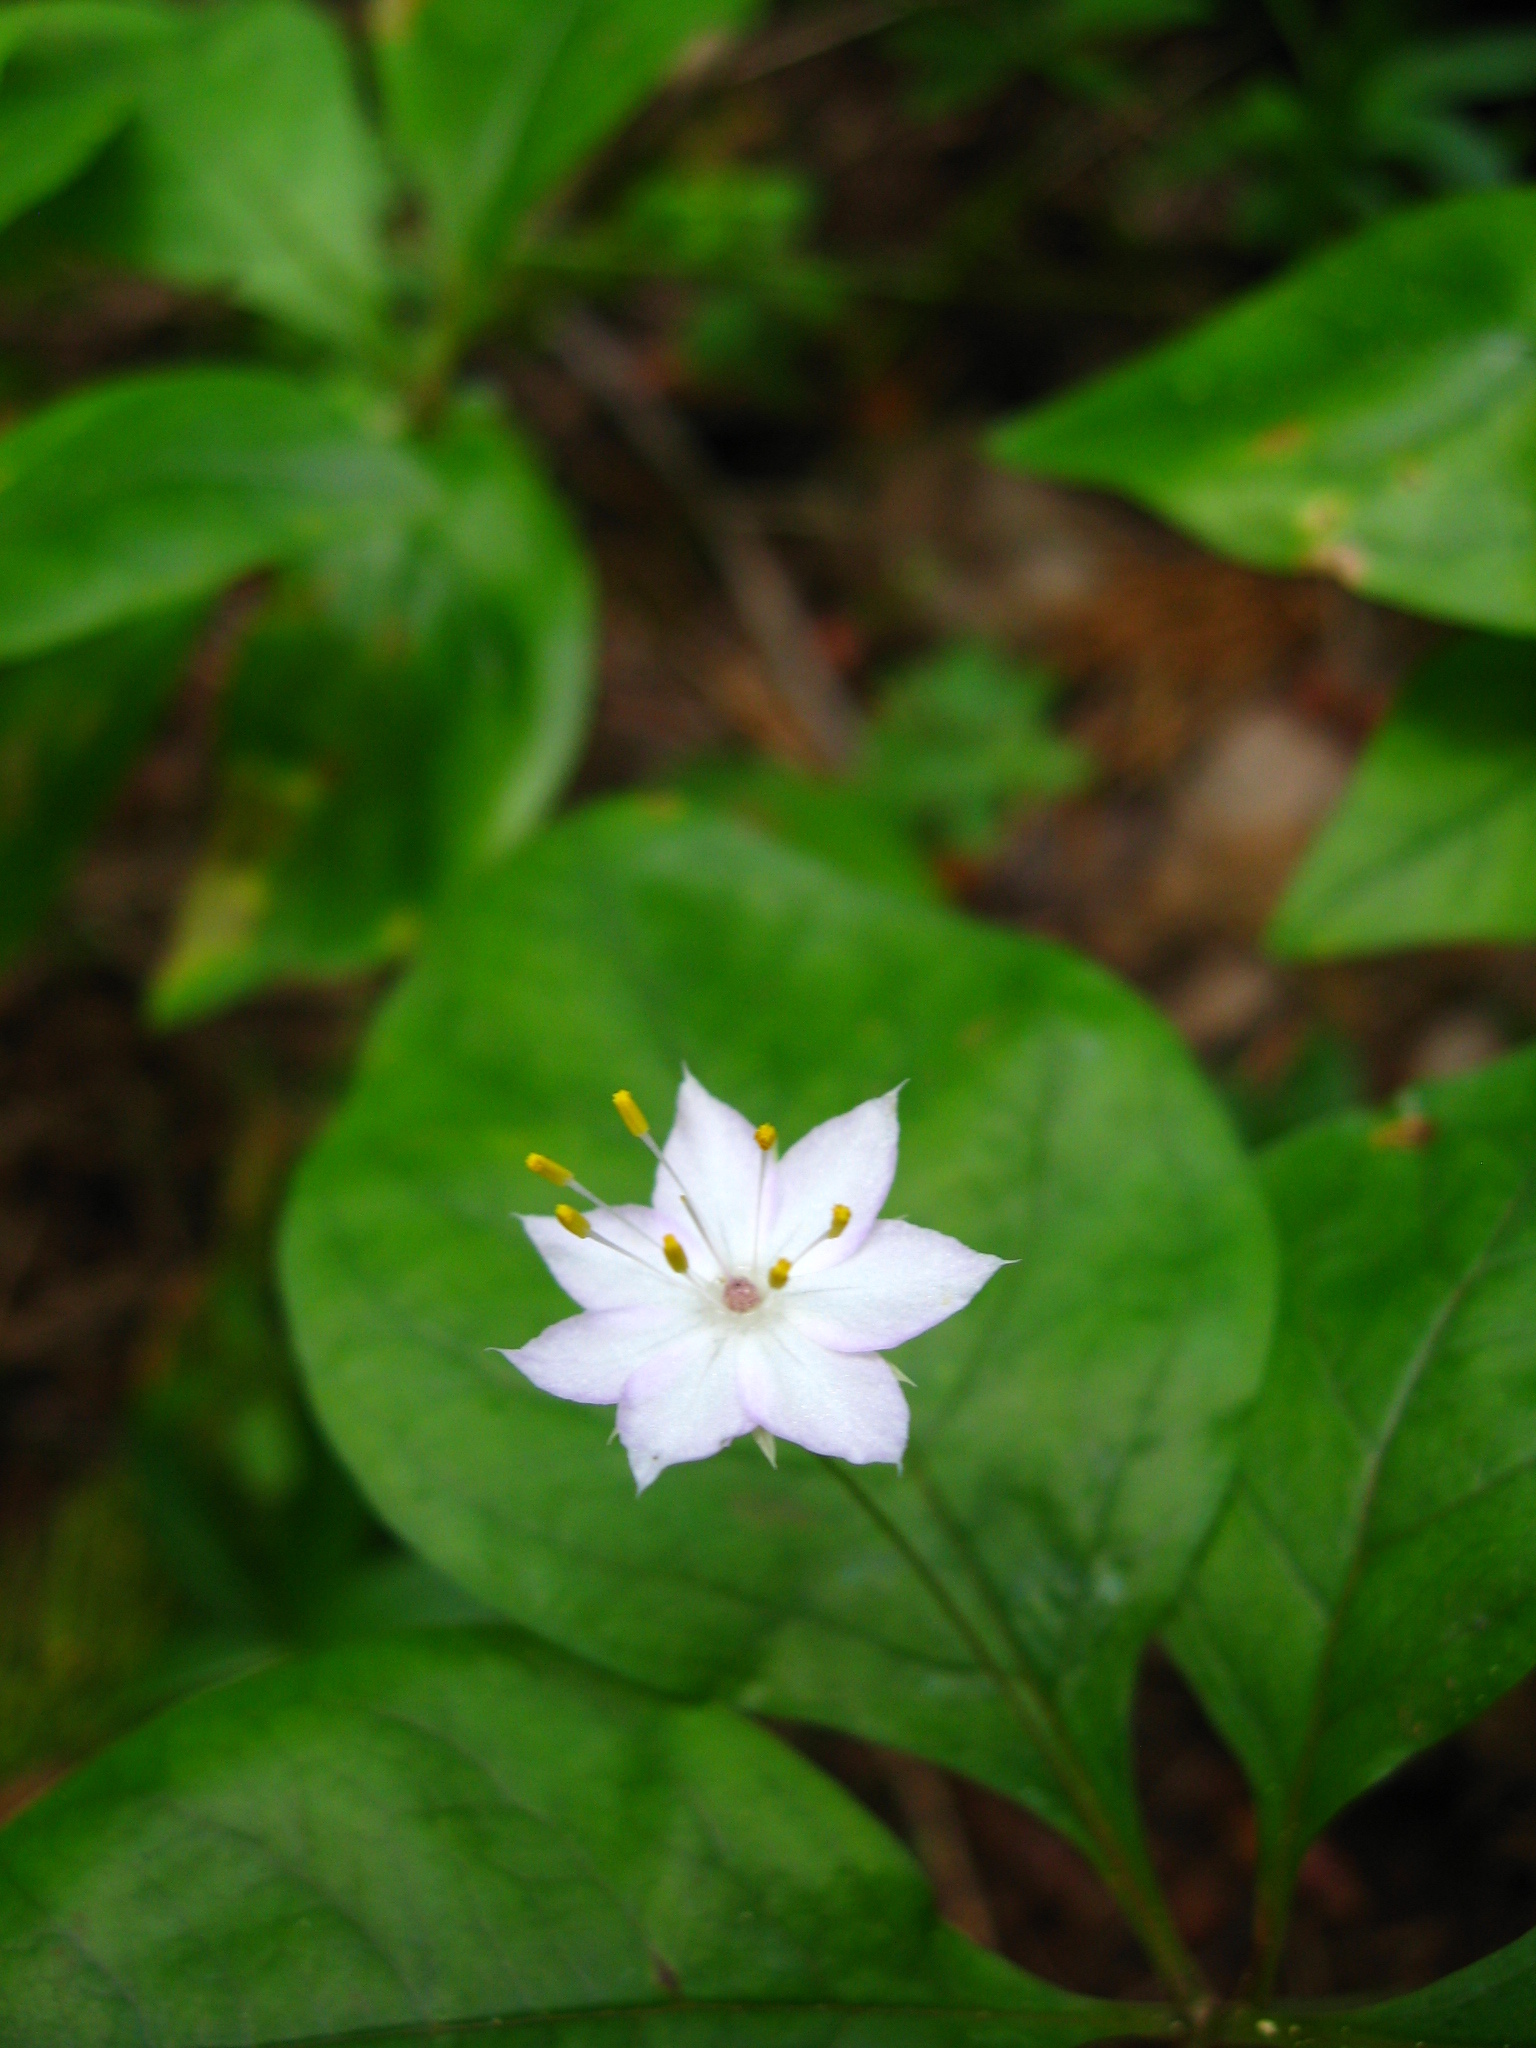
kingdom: Plantae
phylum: Tracheophyta
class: Magnoliopsida
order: Ericales
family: Primulaceae
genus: Lysimachia
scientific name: Lysimachia latifolia
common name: Pacific starflower
